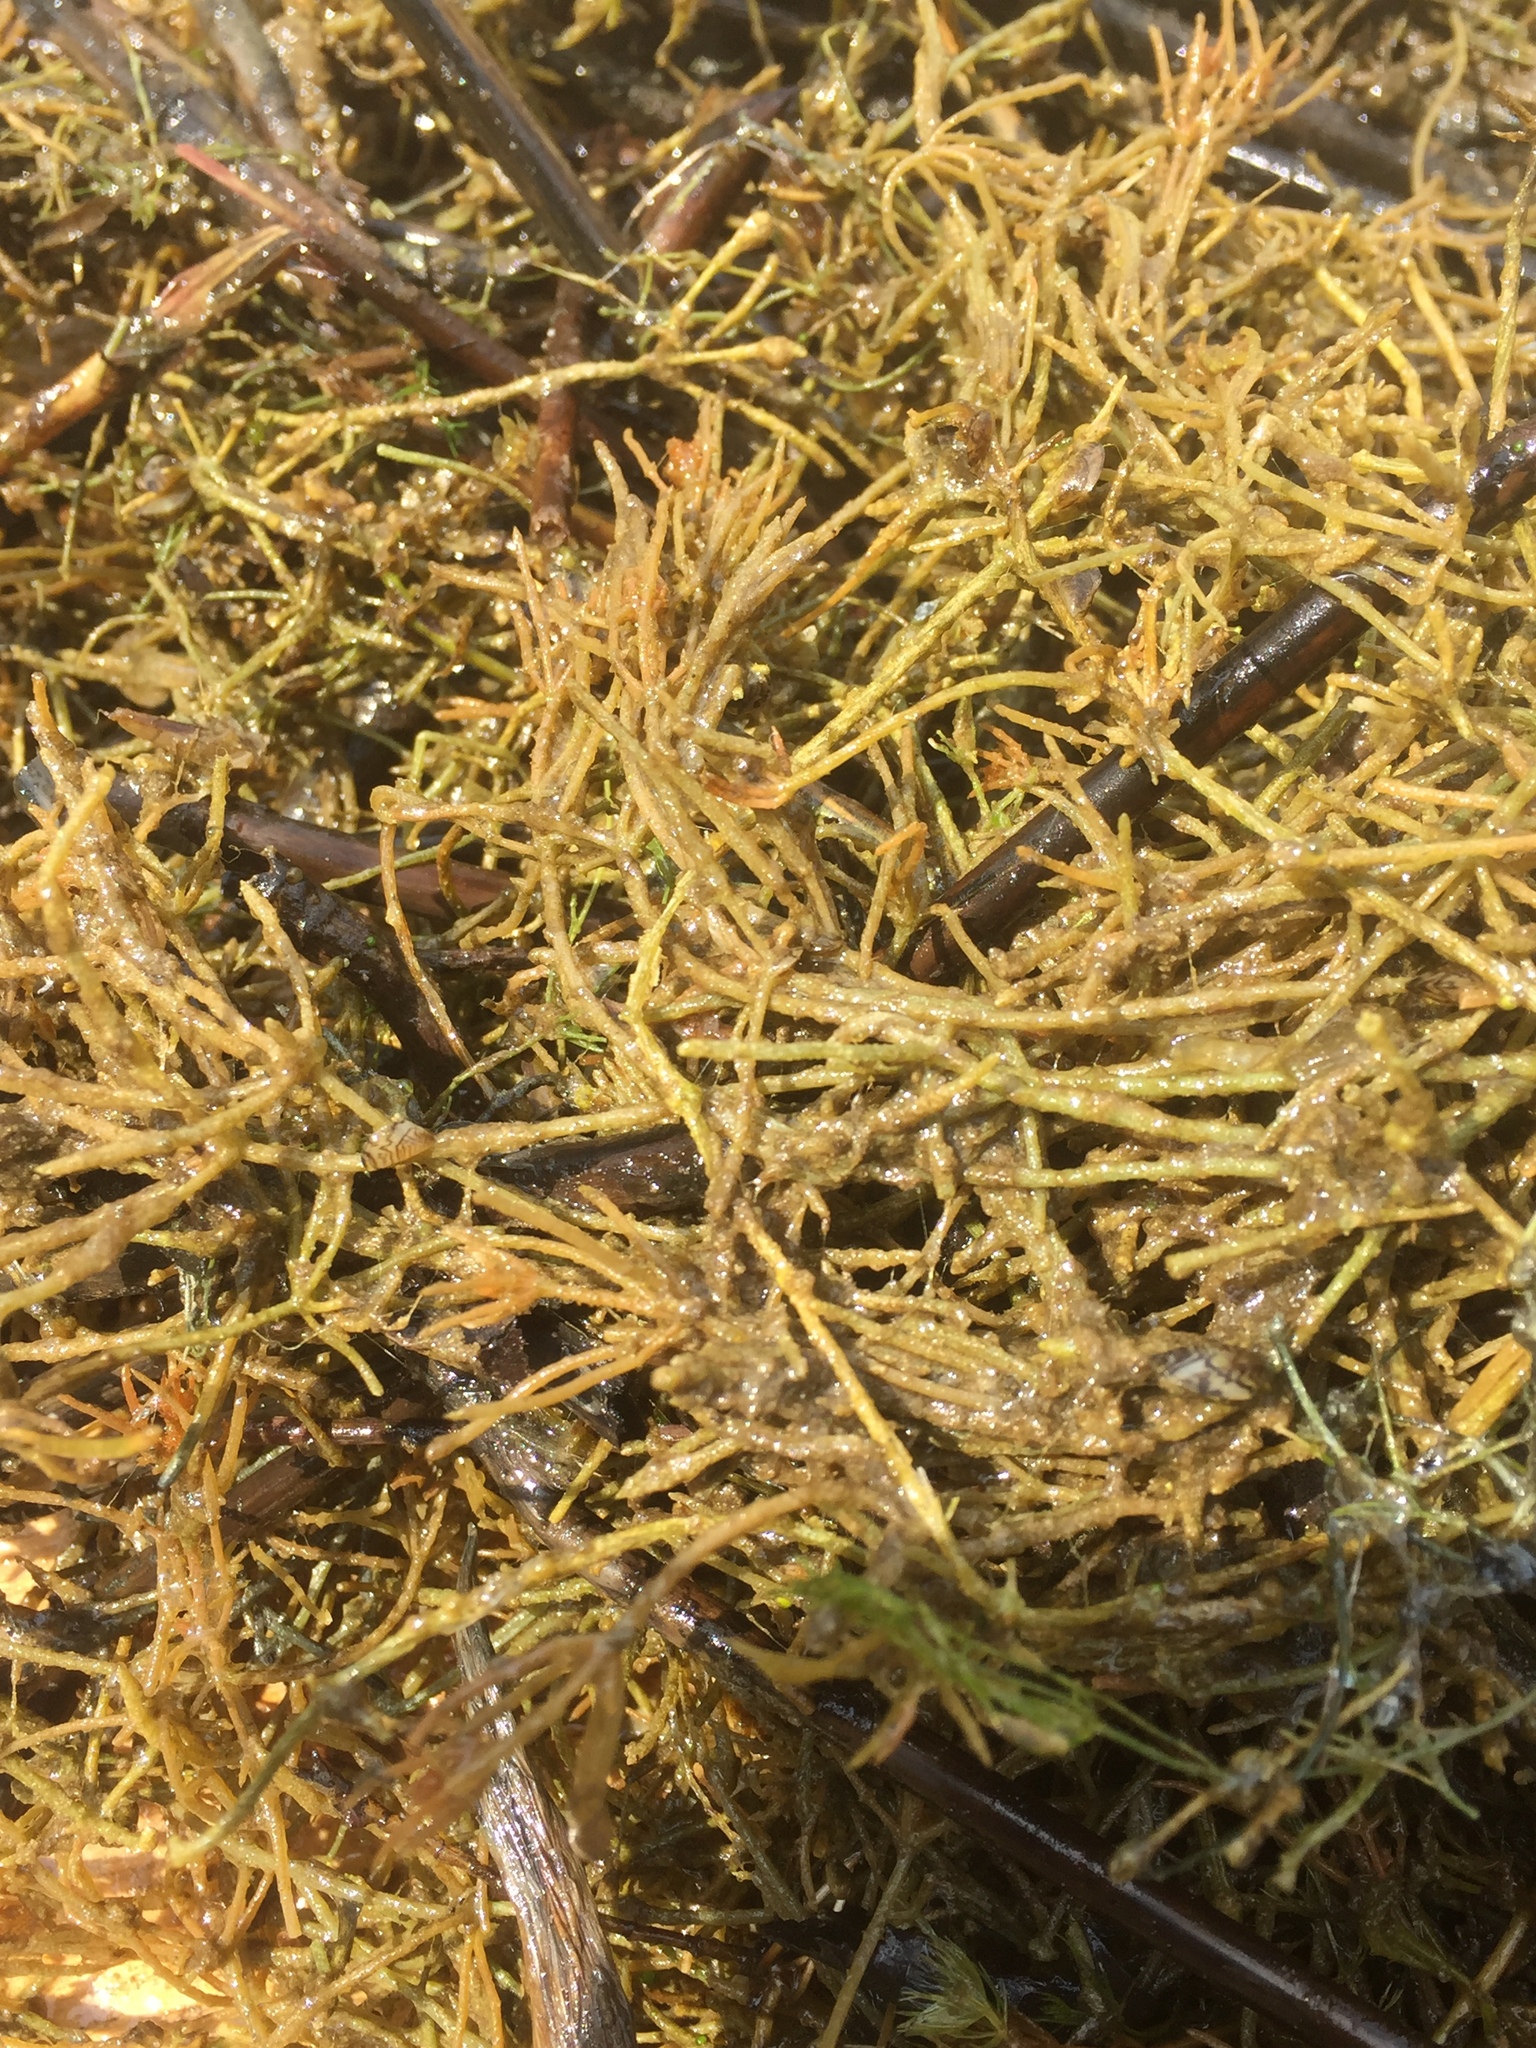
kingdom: Plantae
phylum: Charophyta
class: Charophyceae
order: Charales
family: Characeae
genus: Chara
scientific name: Chara tomentosa
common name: Coral stonewort
